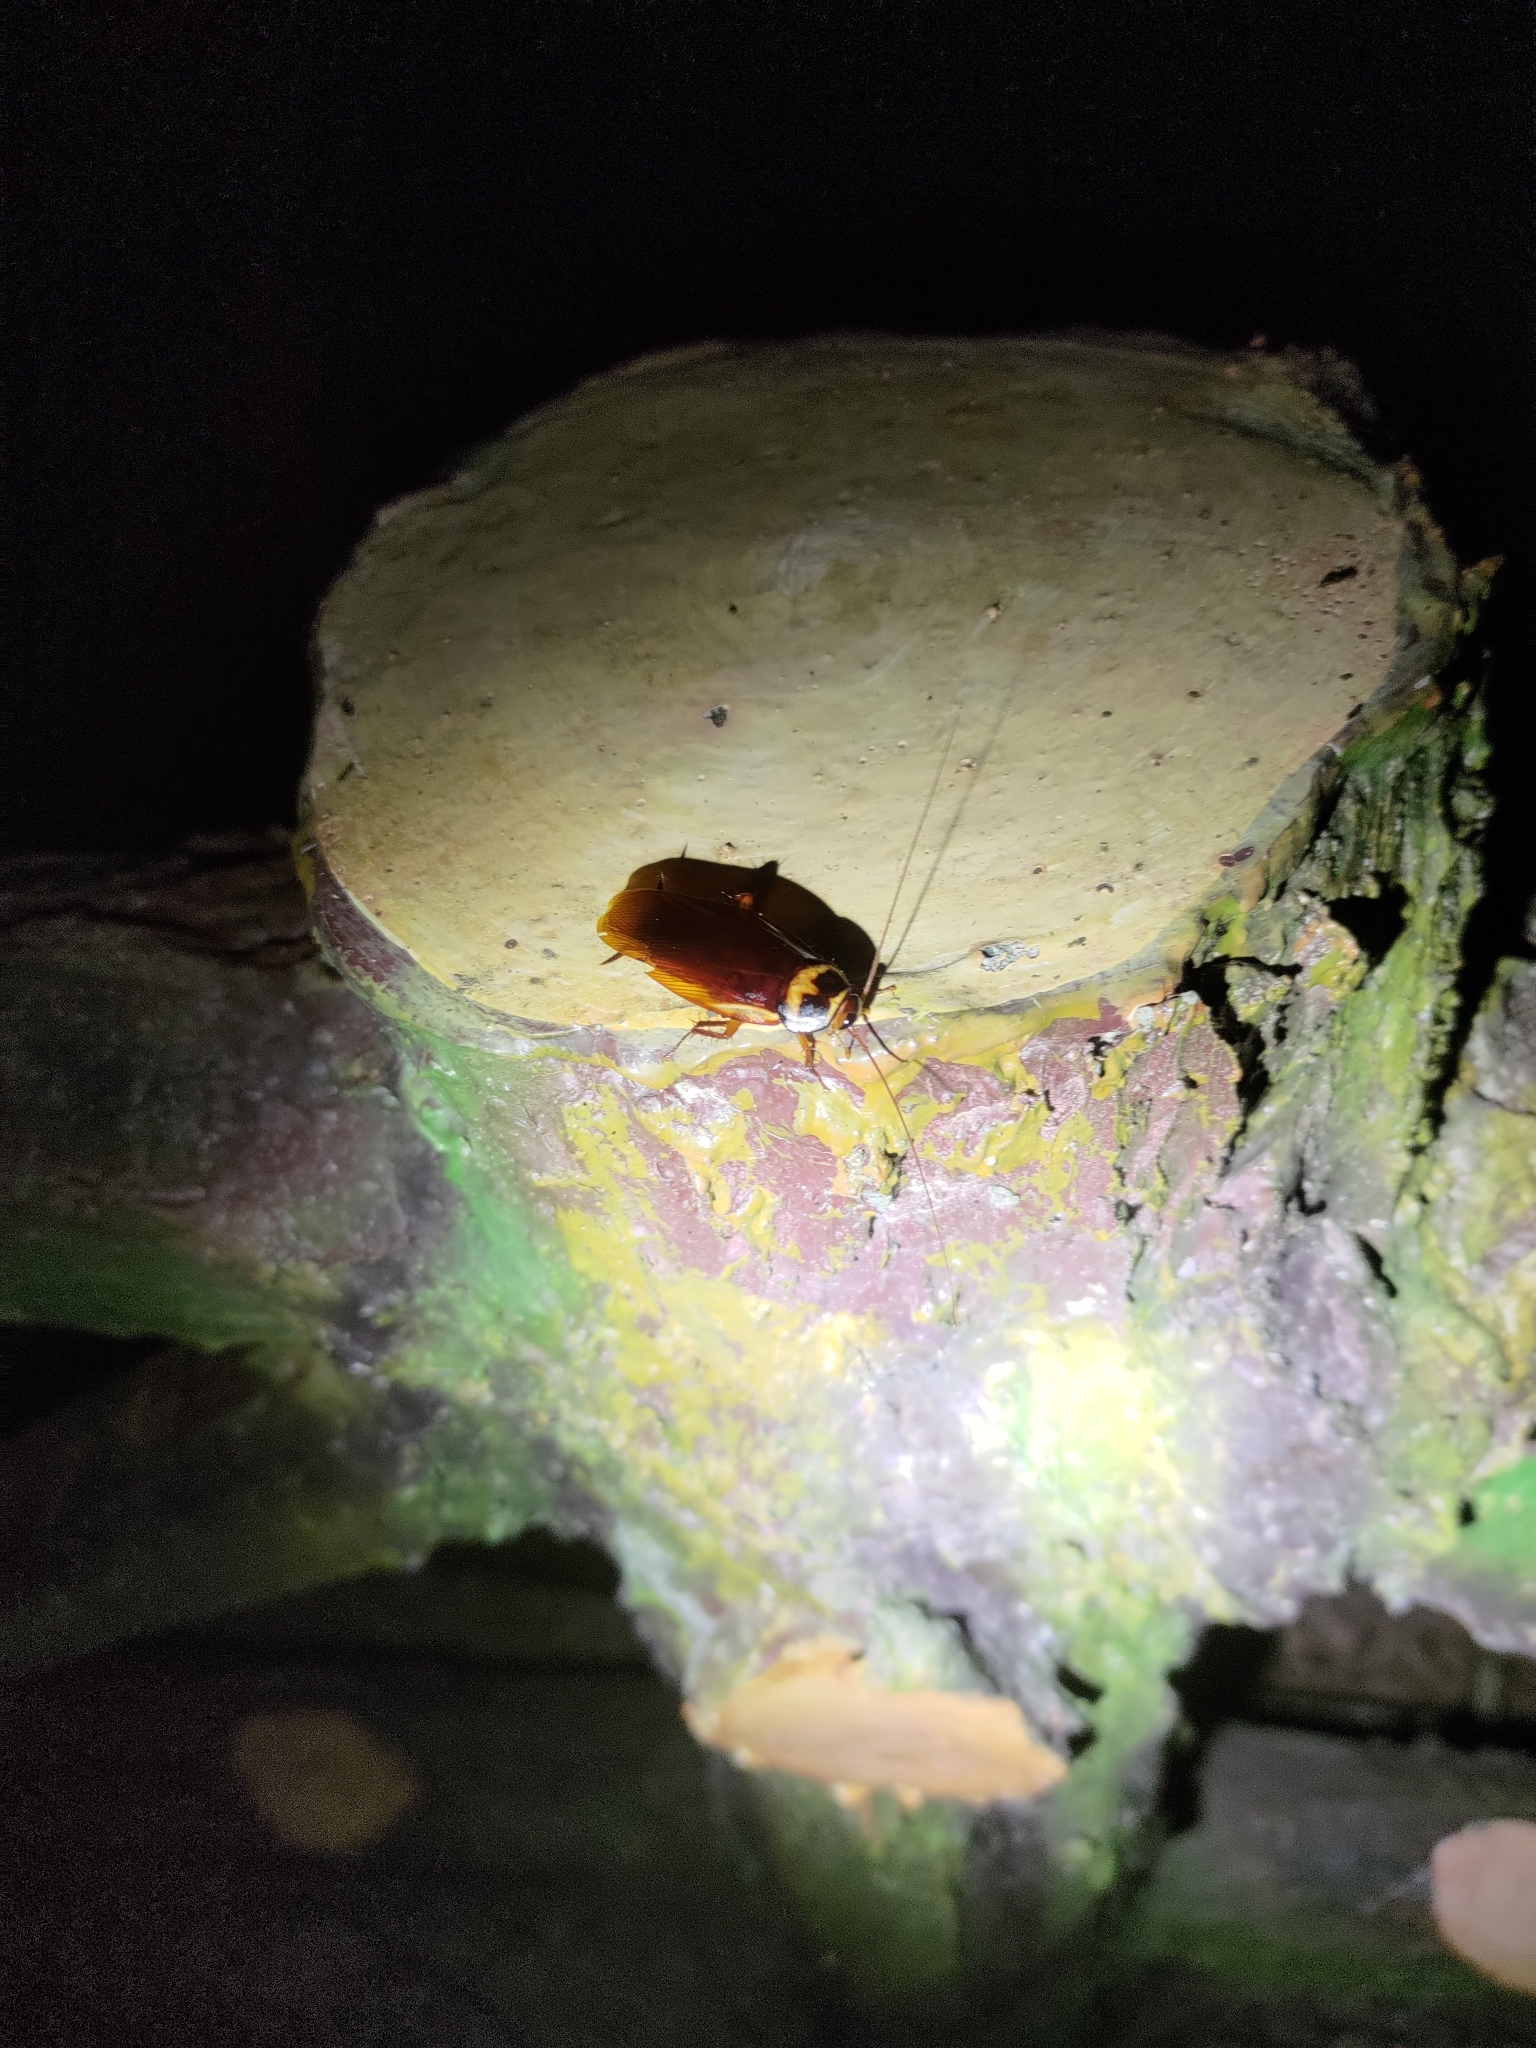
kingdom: Animalia
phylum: Arthropoda
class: Insecta
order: Blattodea
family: Blattidae
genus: Periplaneta
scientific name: Periplaneta australasiae
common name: Australian cockroach
